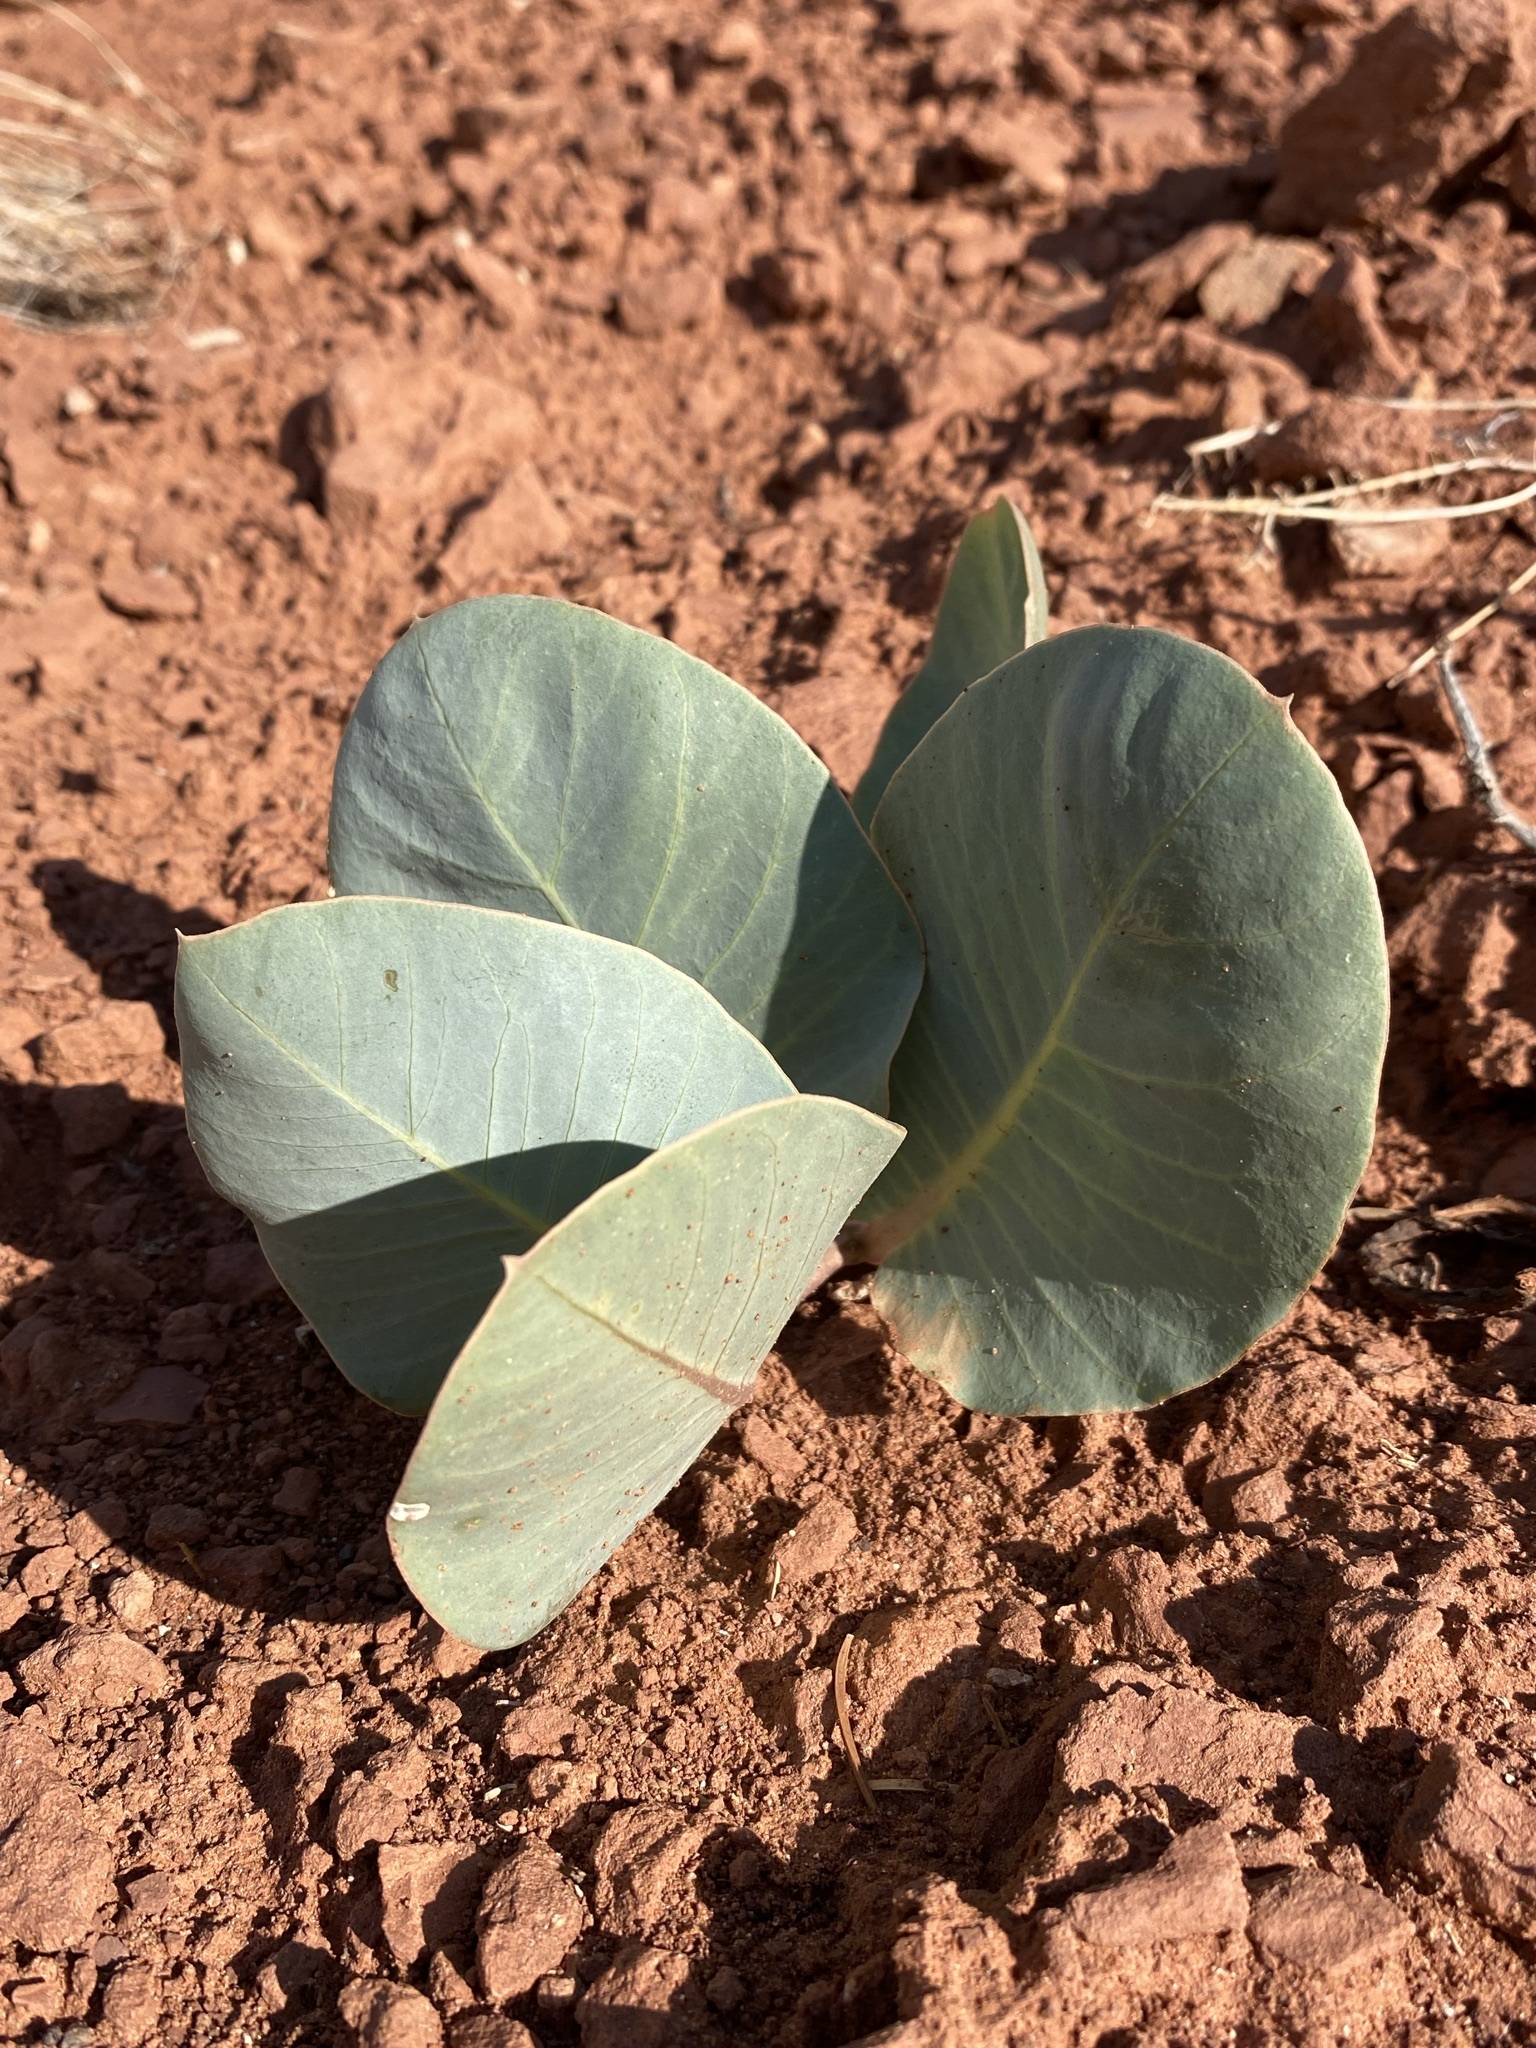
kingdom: Plantae
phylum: Tracheophyta
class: Magnoliopsida
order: Gentianales
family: Apocynaceae
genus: Asclepias
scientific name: Asclepias cryptoceras
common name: Humboldt mountains milkweed
